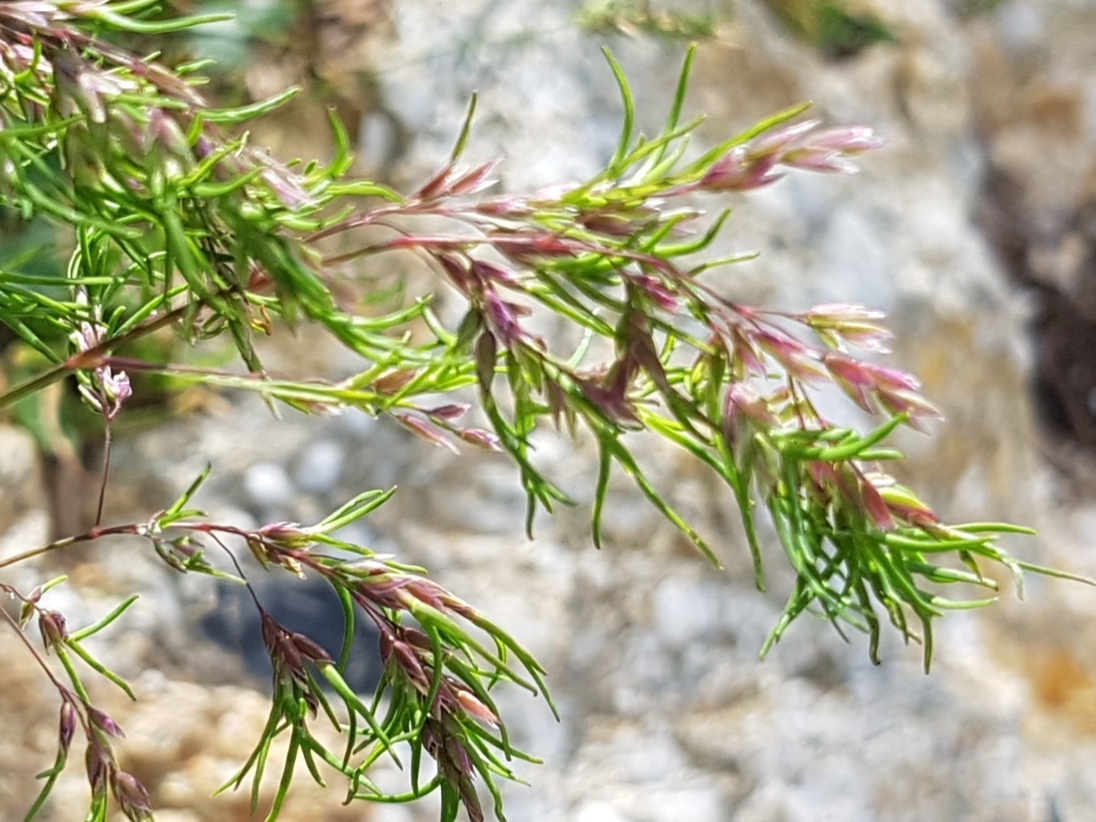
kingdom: Plantae
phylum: Tracheophyta
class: Liliopsida
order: Poales
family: Poaceae
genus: Poa
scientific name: Poa alpina
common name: Alpine bluegrass
